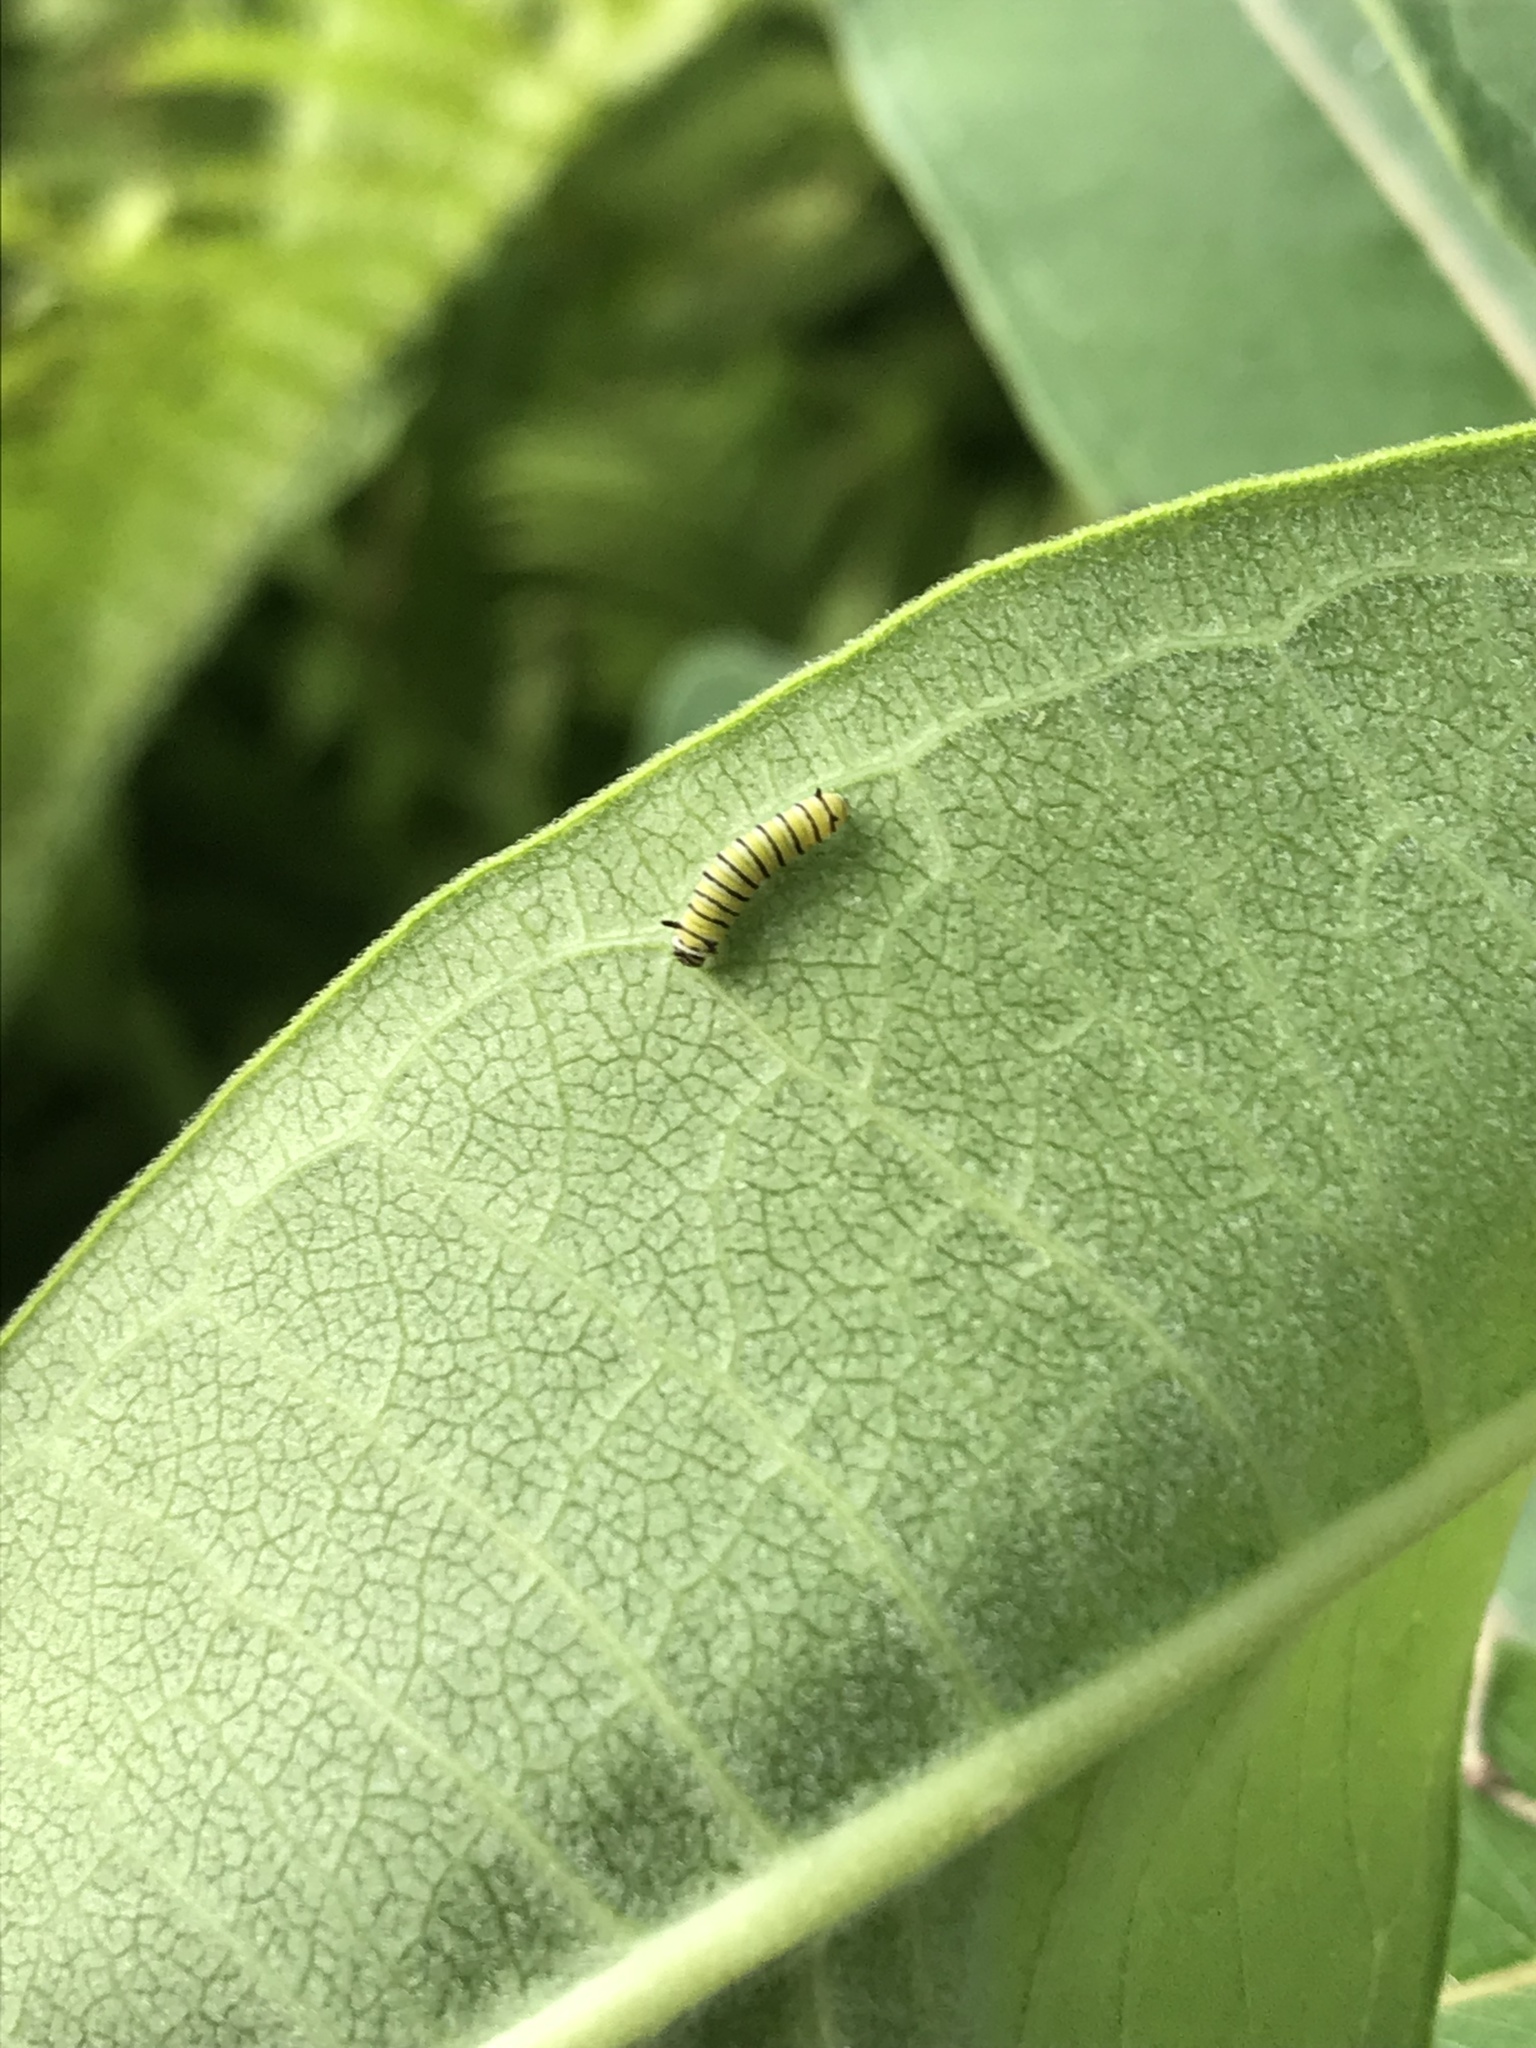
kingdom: Animalia
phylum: Arthropoda
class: Insecta
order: Lepidoptera
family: Nymphalidae
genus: Danaus
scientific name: Danaus plexippus
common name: Monarch
